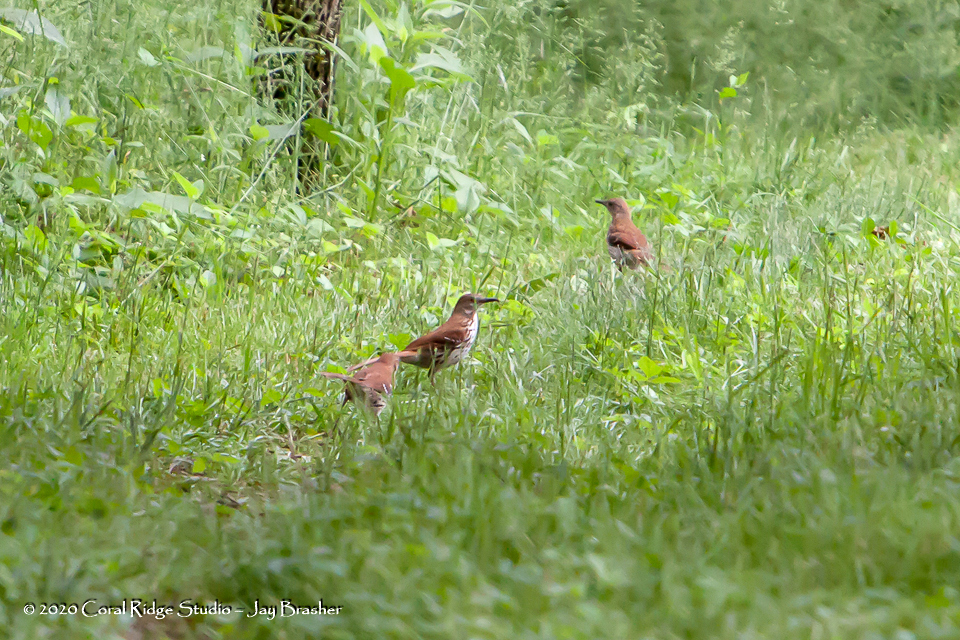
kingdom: Animalia
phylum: Chordata
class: Aves
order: Passeriformes
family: Mimidae
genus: Toxostoma
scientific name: Toxostoma rufum
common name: Brown thrasher
